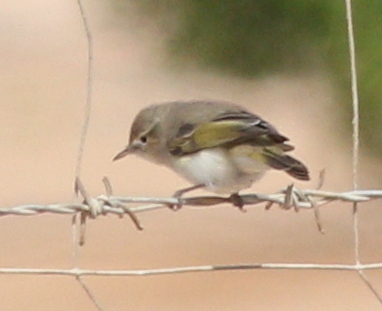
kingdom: Animalia
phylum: Chordata
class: Aves
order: Passeriformes
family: Phylloscopidae
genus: Phylloscopus
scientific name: Phylloscopus orientalis
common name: Eastern bonelli's warbler
